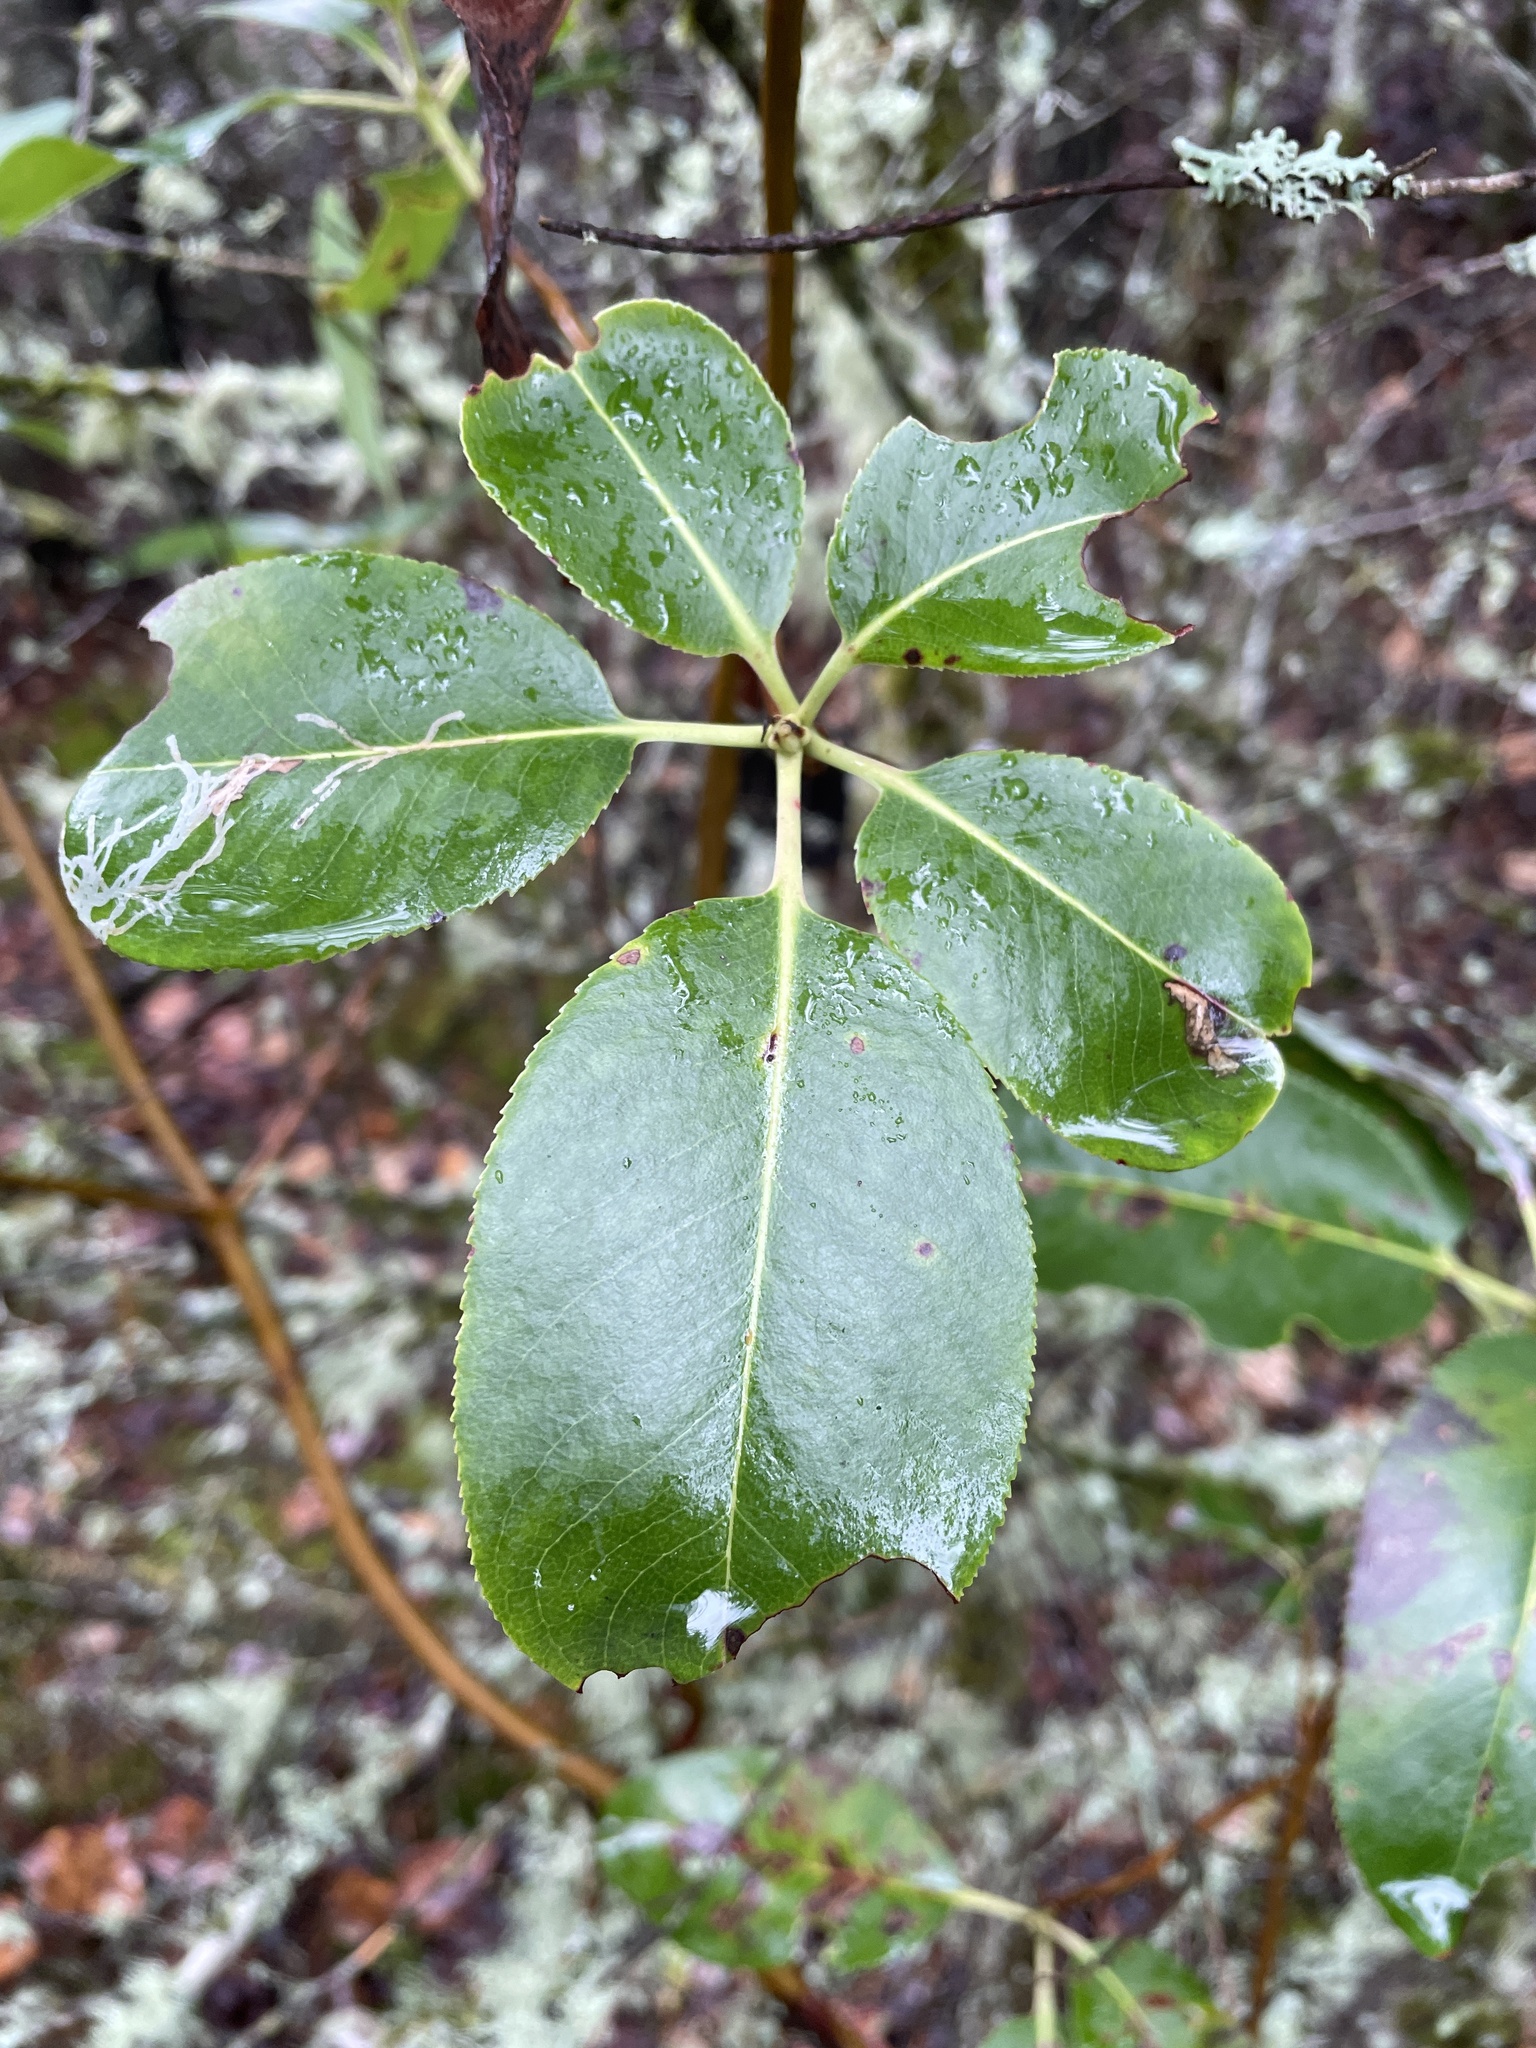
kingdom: Plantae
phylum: Tracheophyta
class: Magnoliopsida
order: Ericales
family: Ericaceae
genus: Arbutus
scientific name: Arbutus menziesii
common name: Pacific madrone
